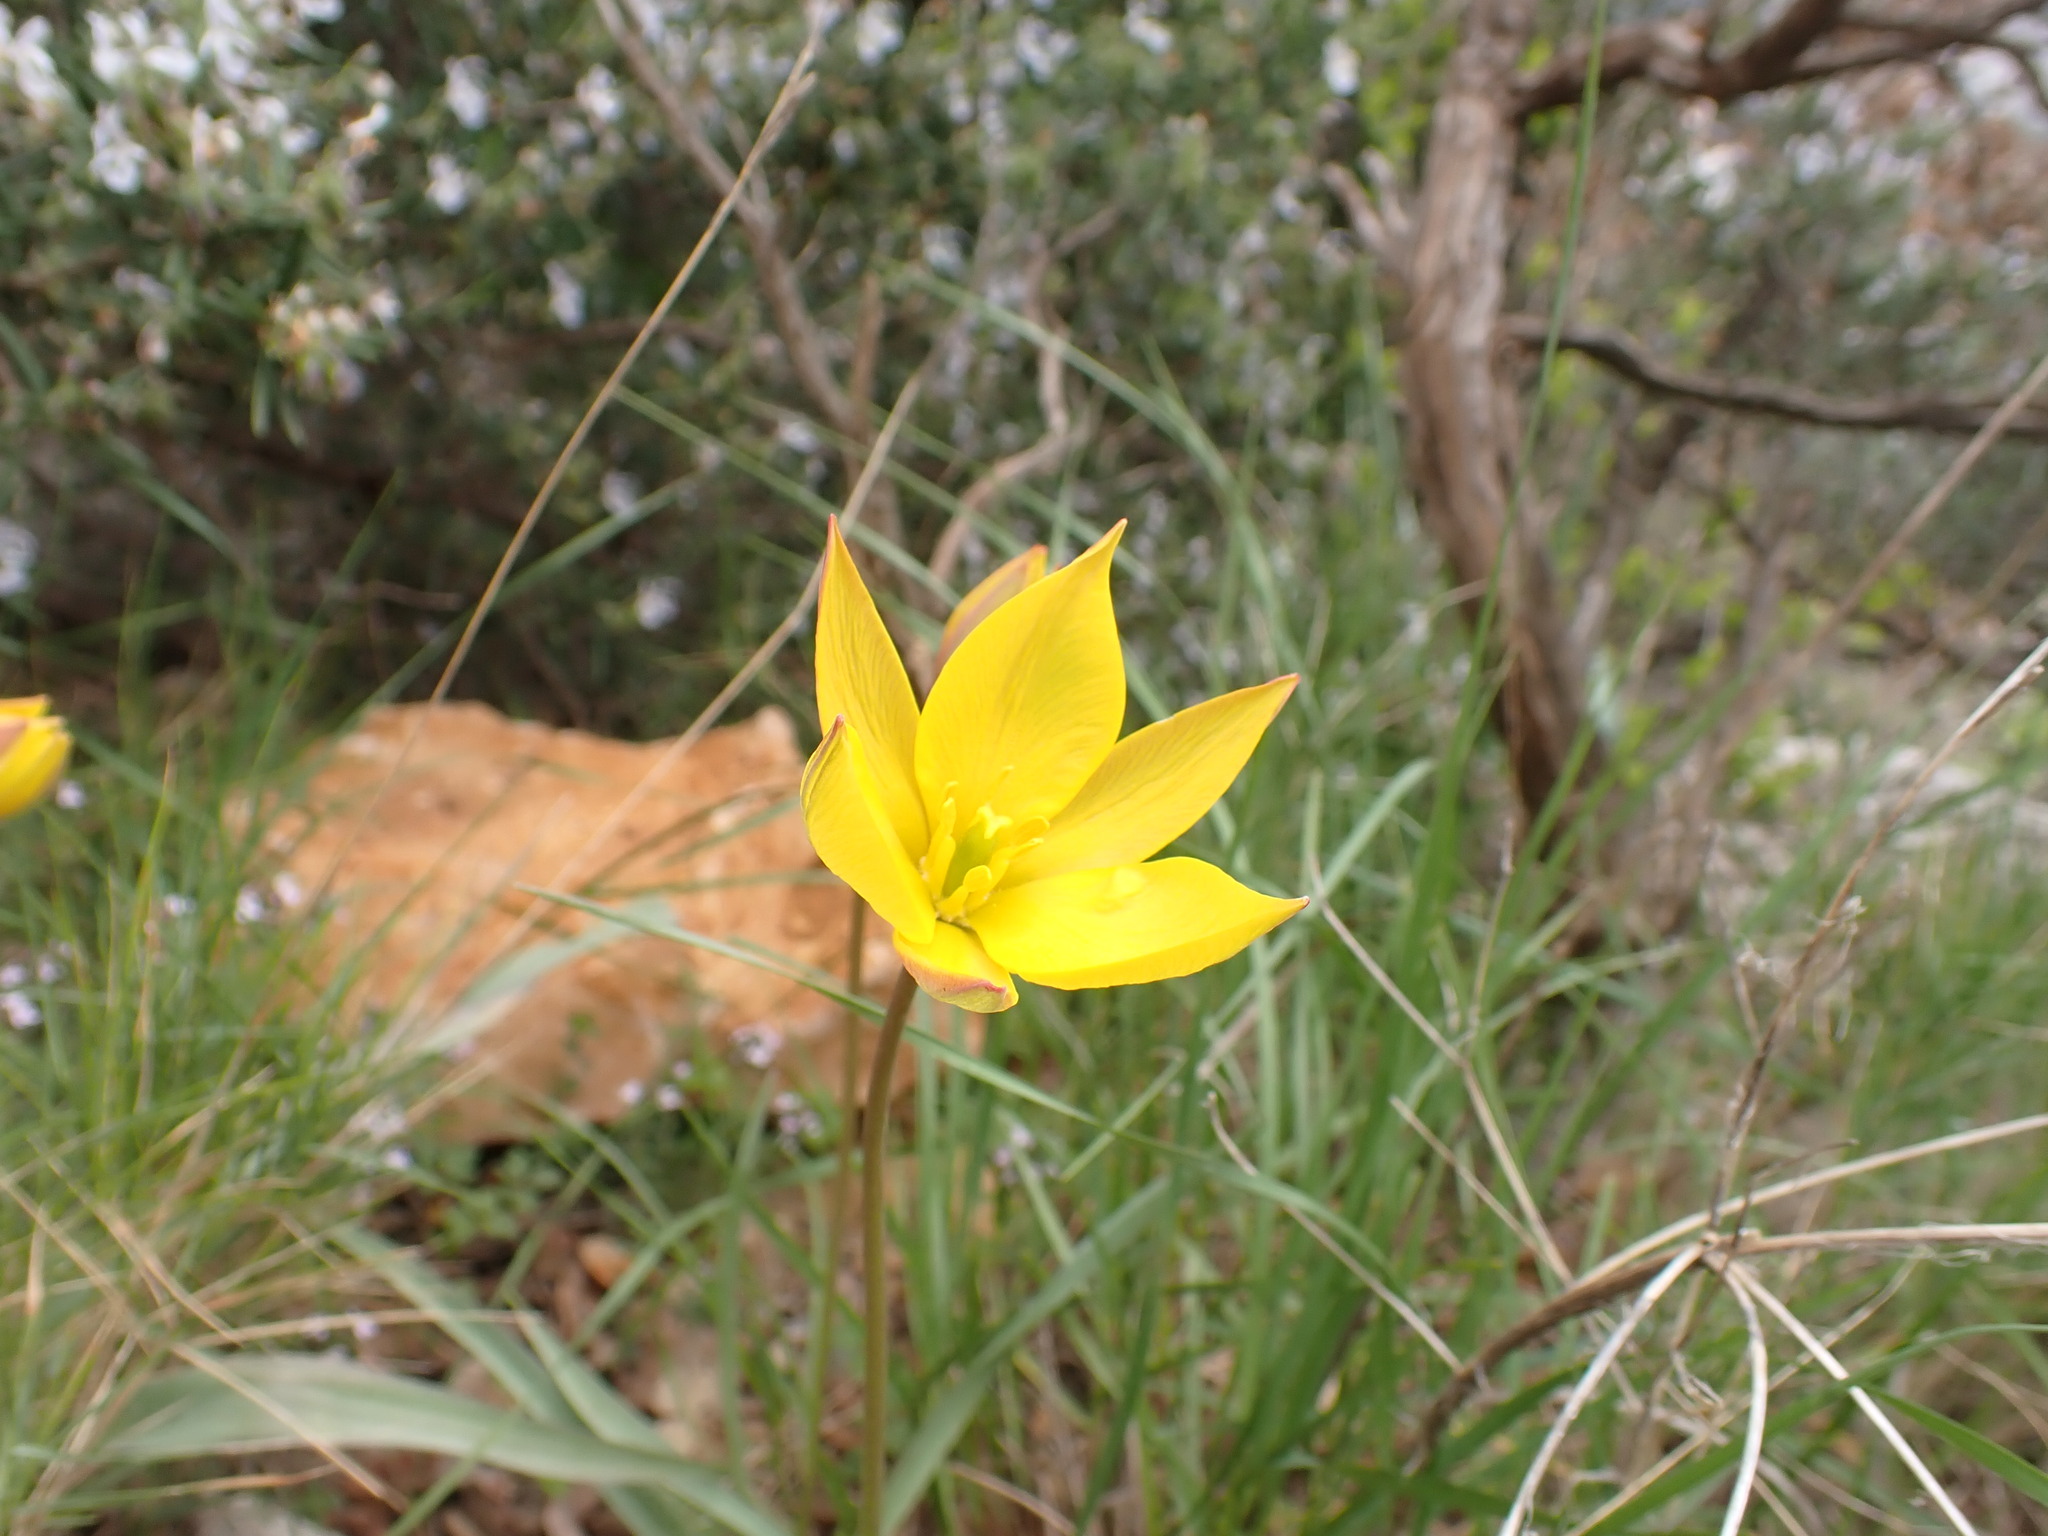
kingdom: Plantae
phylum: Tracheophyta
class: Liliopsida
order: Liliales
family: Liliaceae
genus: Tulipa
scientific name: Tulipa sylvestris
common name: Wild tulip
